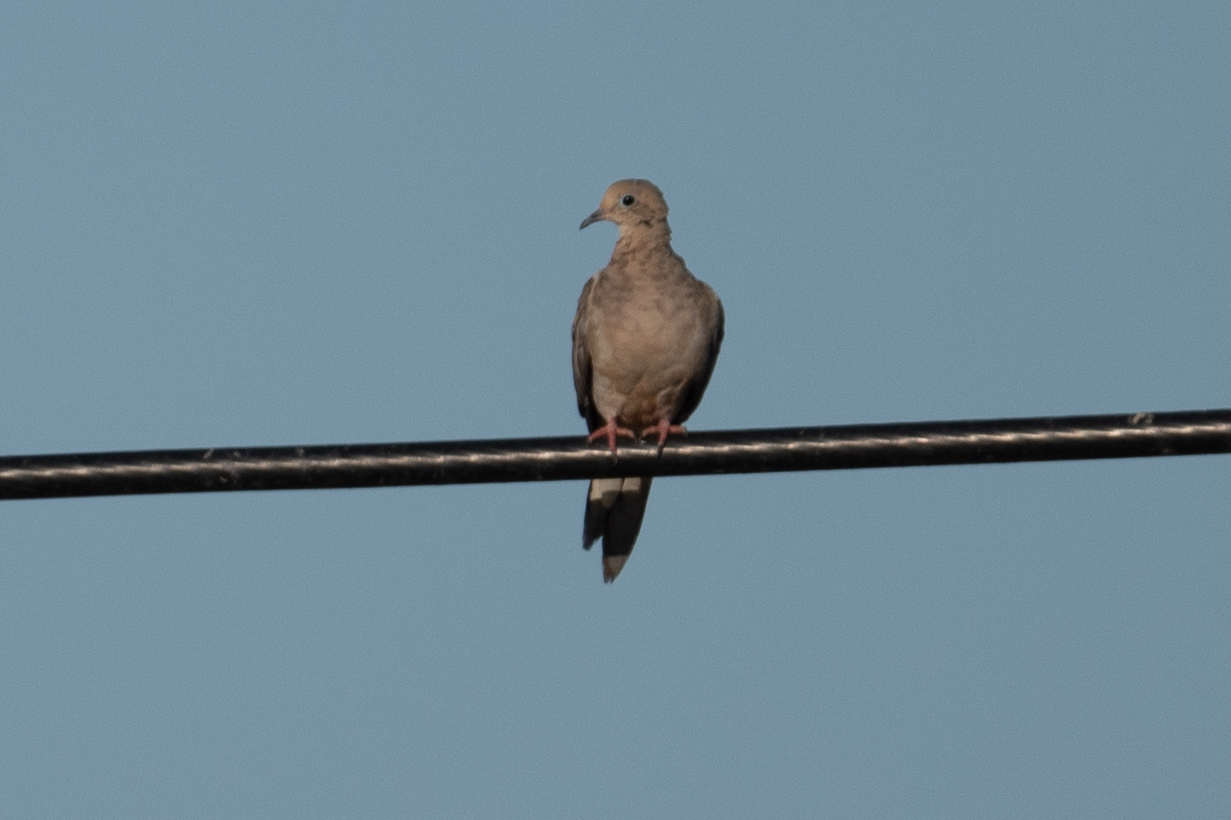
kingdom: Animalia
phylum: Chordata
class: Aves
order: Columbiformes
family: Columbidae
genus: Zenaida
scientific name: Zenaida macroura
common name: Mourning dove
